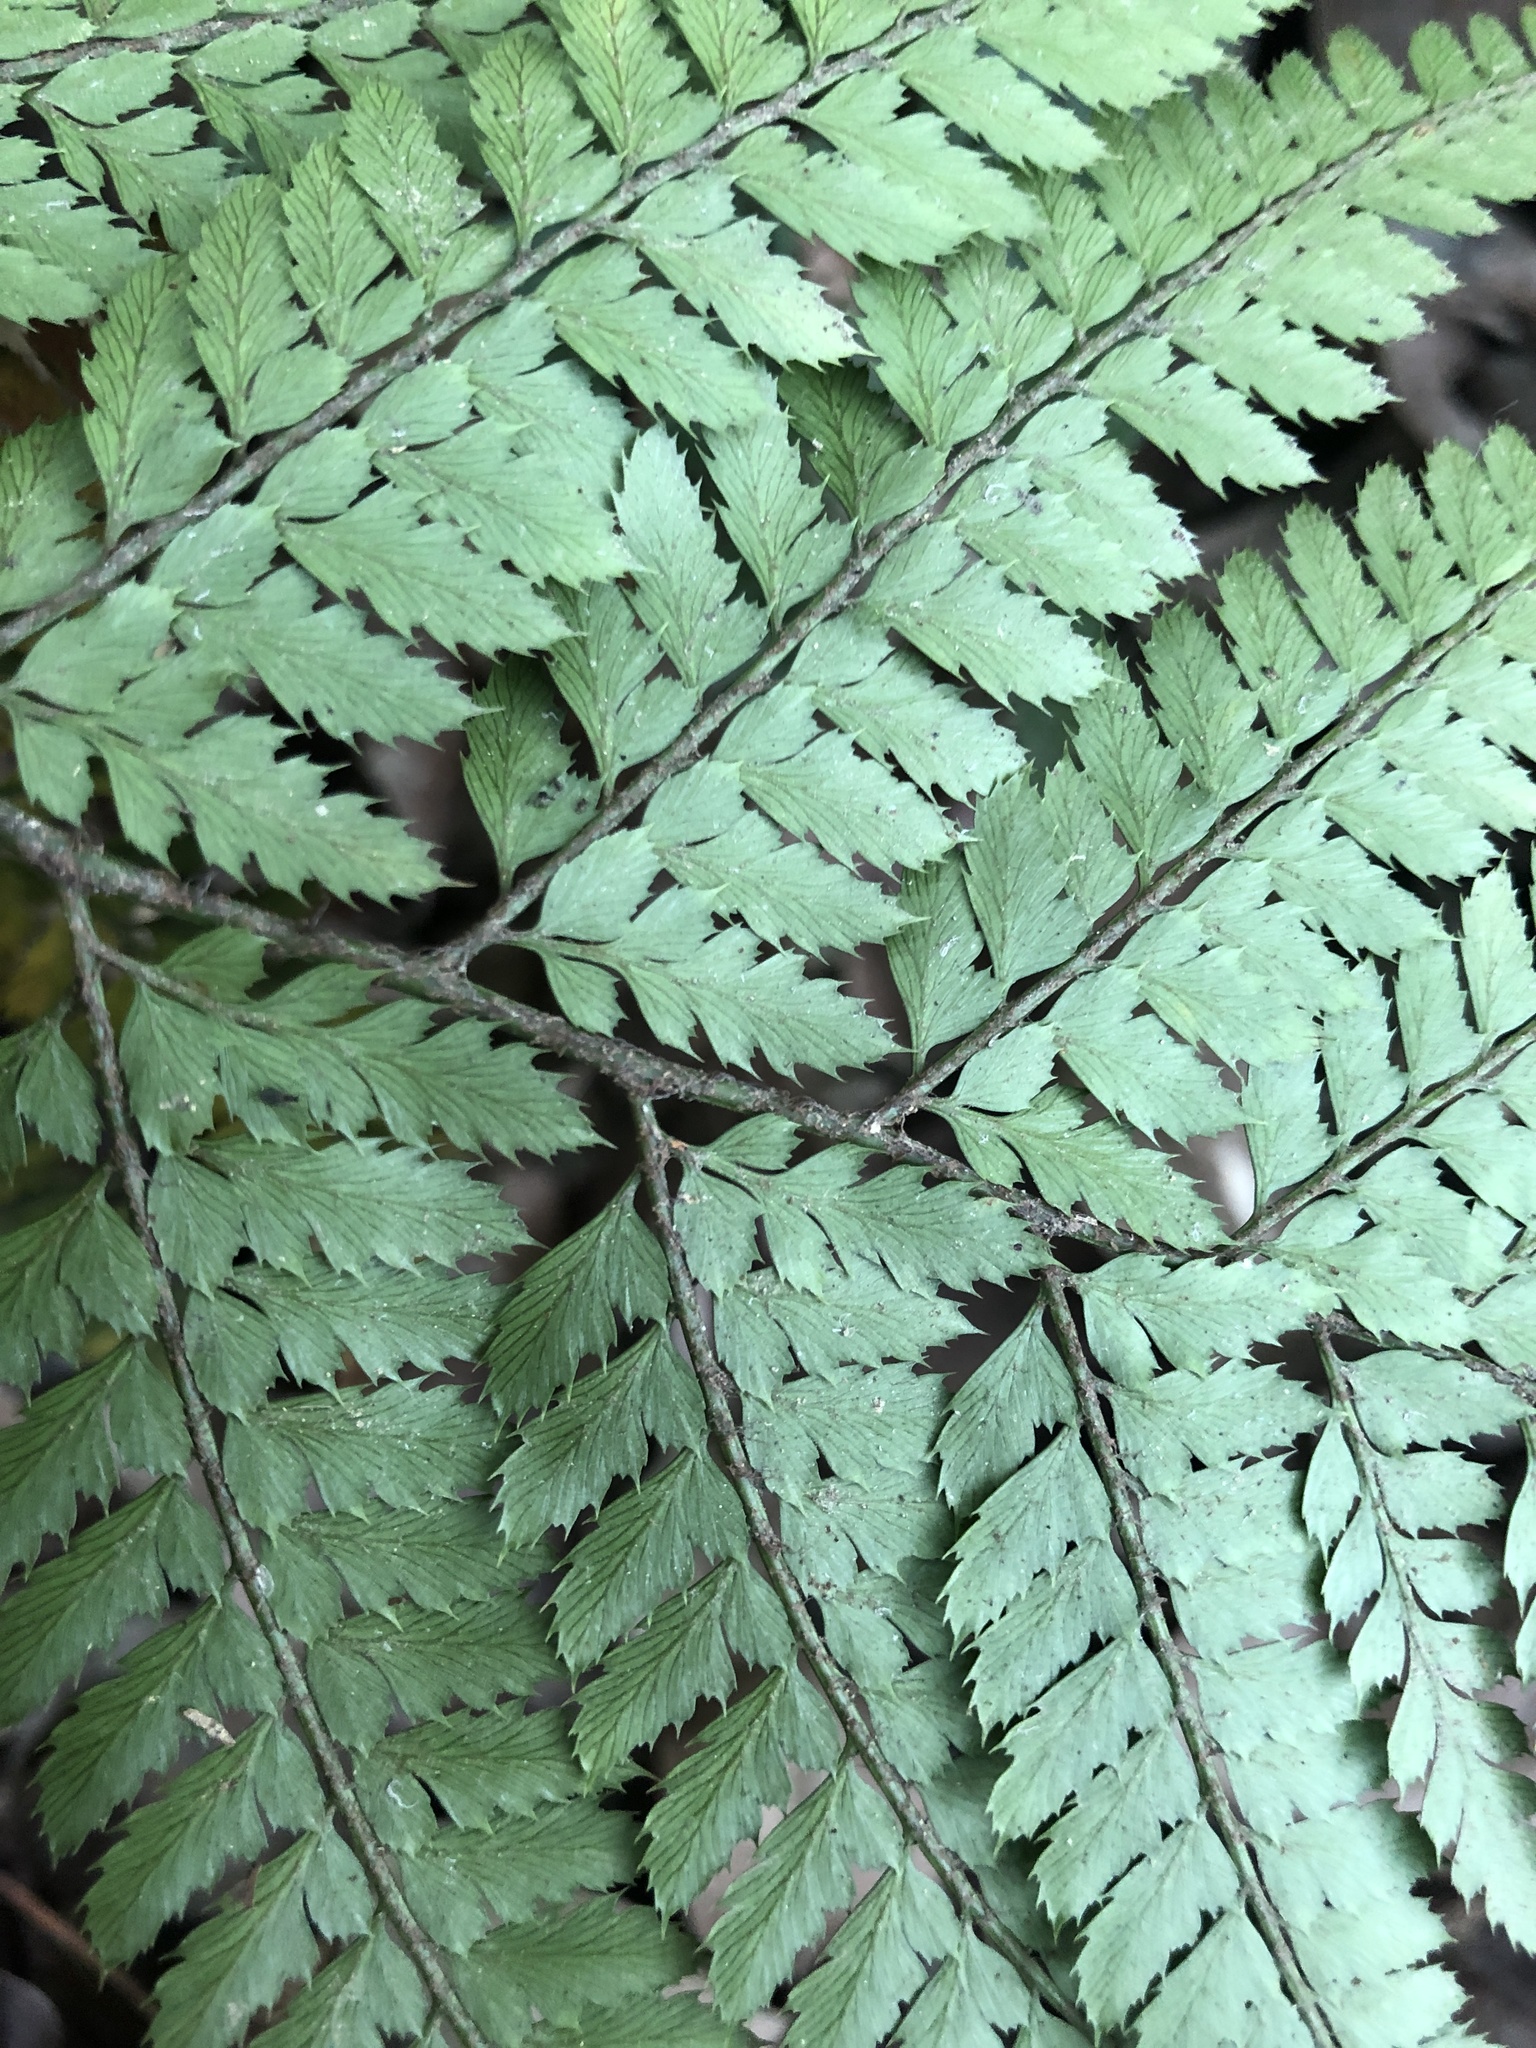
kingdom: Plantae
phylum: Tracheophyta
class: Polypodiopsida
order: Polypodiales
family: Dryopteridaceae
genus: Arachniodes
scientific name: Arachniodes aristata
